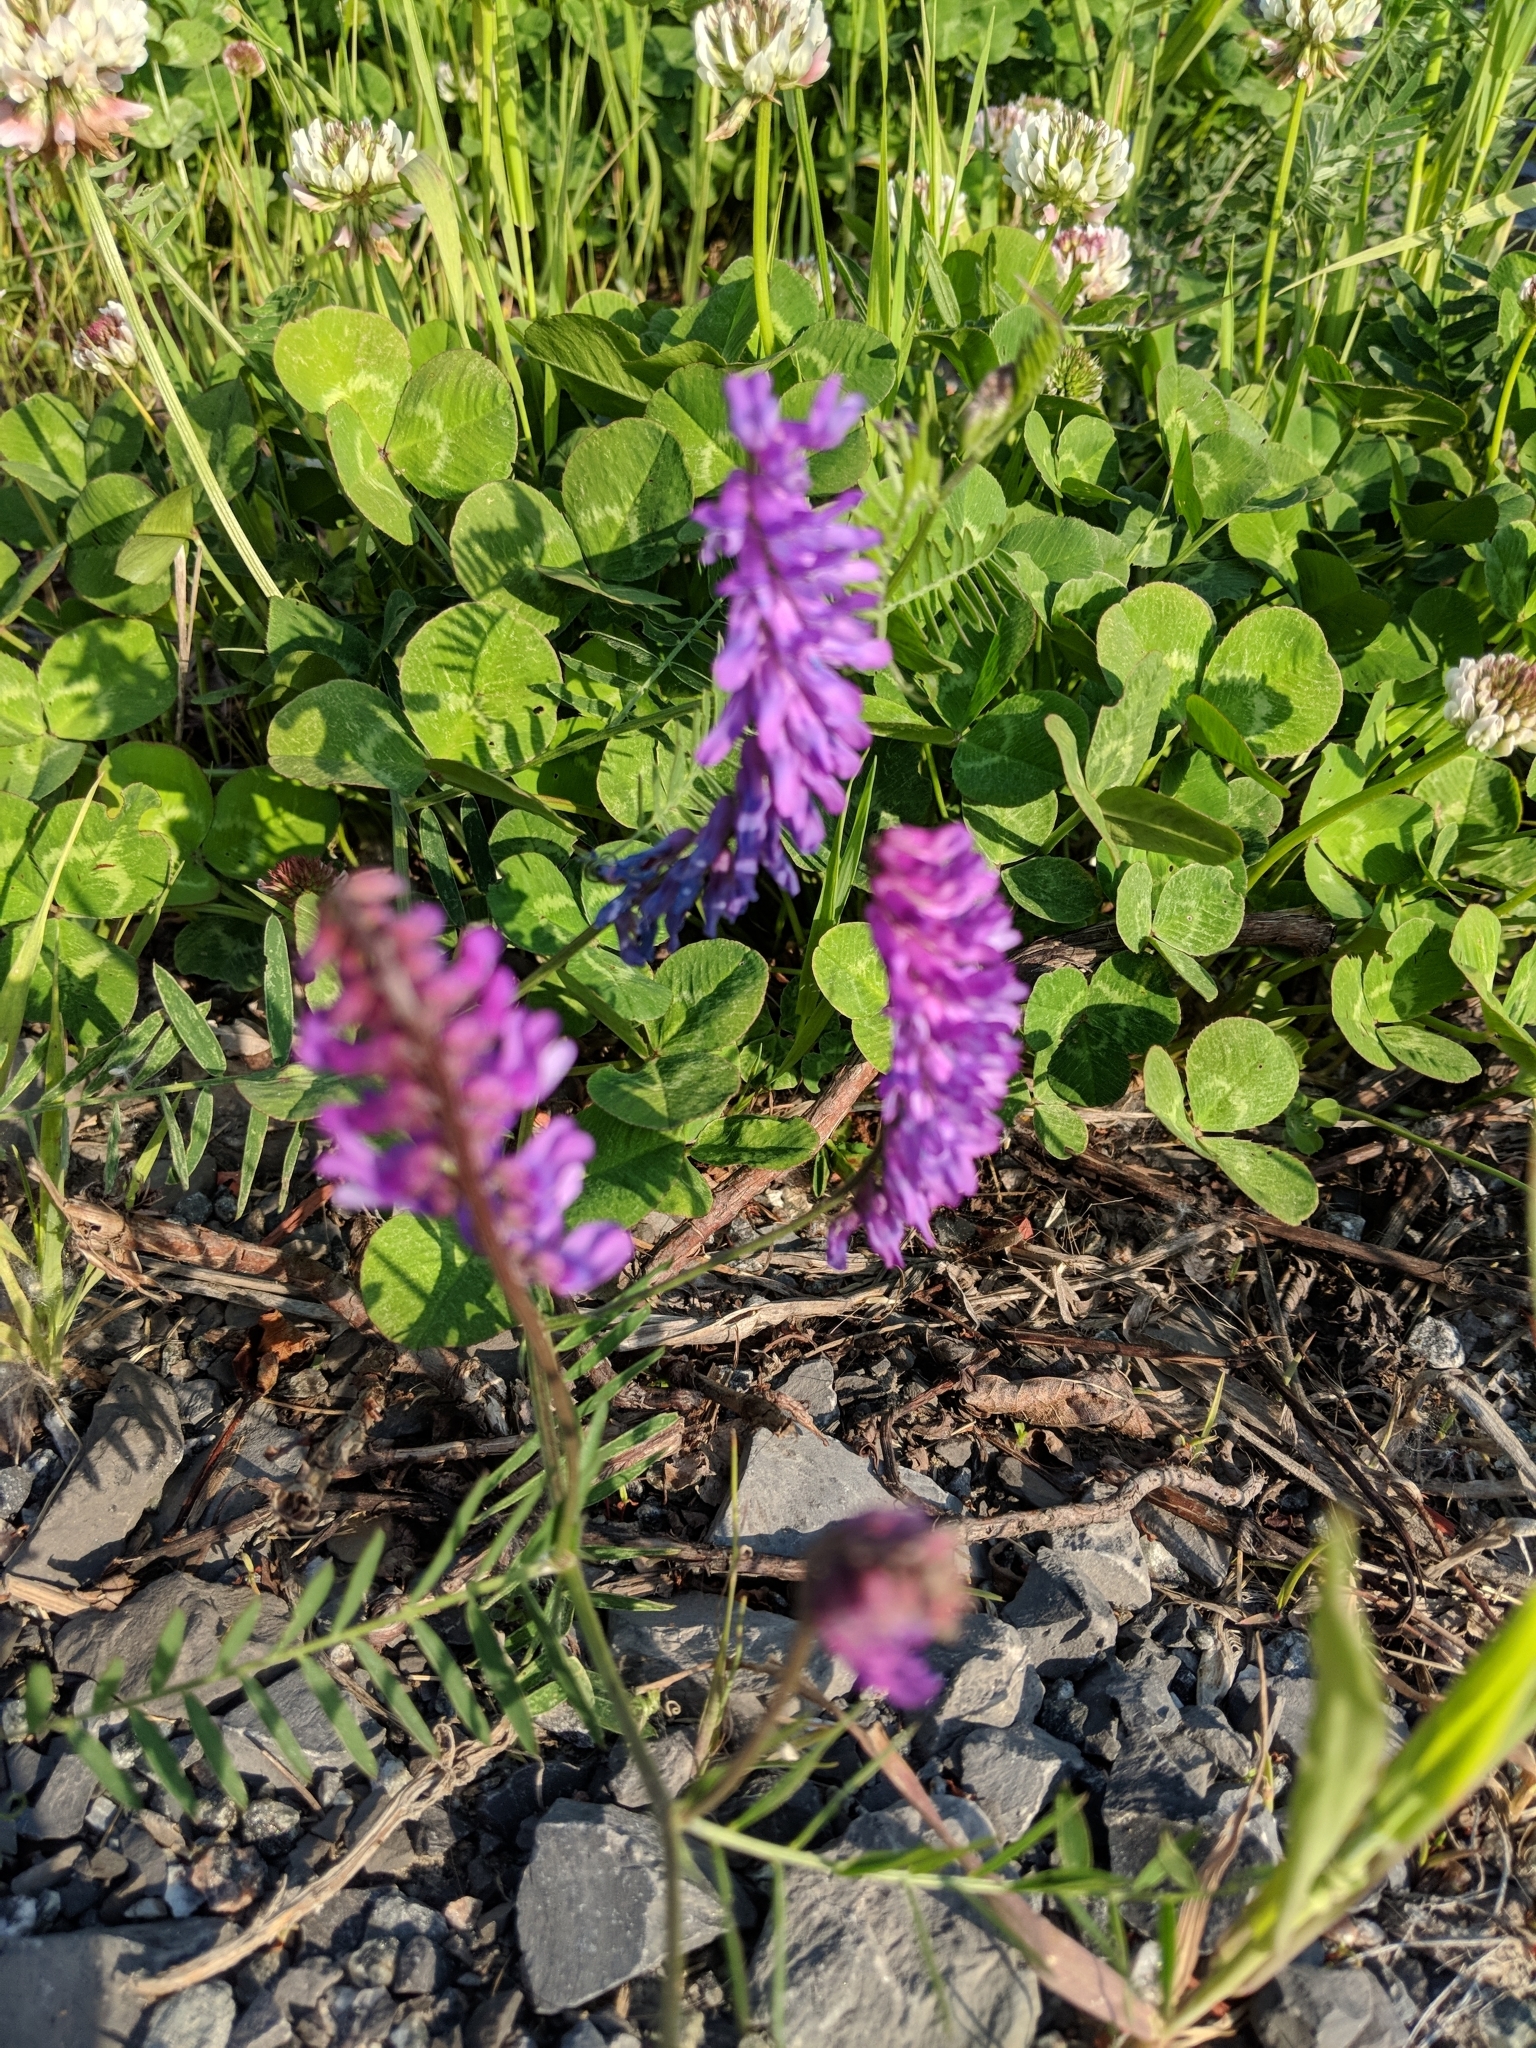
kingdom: Plantae
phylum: Tracheophyta
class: Magnoliopsida
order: Fabales
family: Fabaceae
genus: Vicia
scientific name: Vicia cracca
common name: Bird vetch
